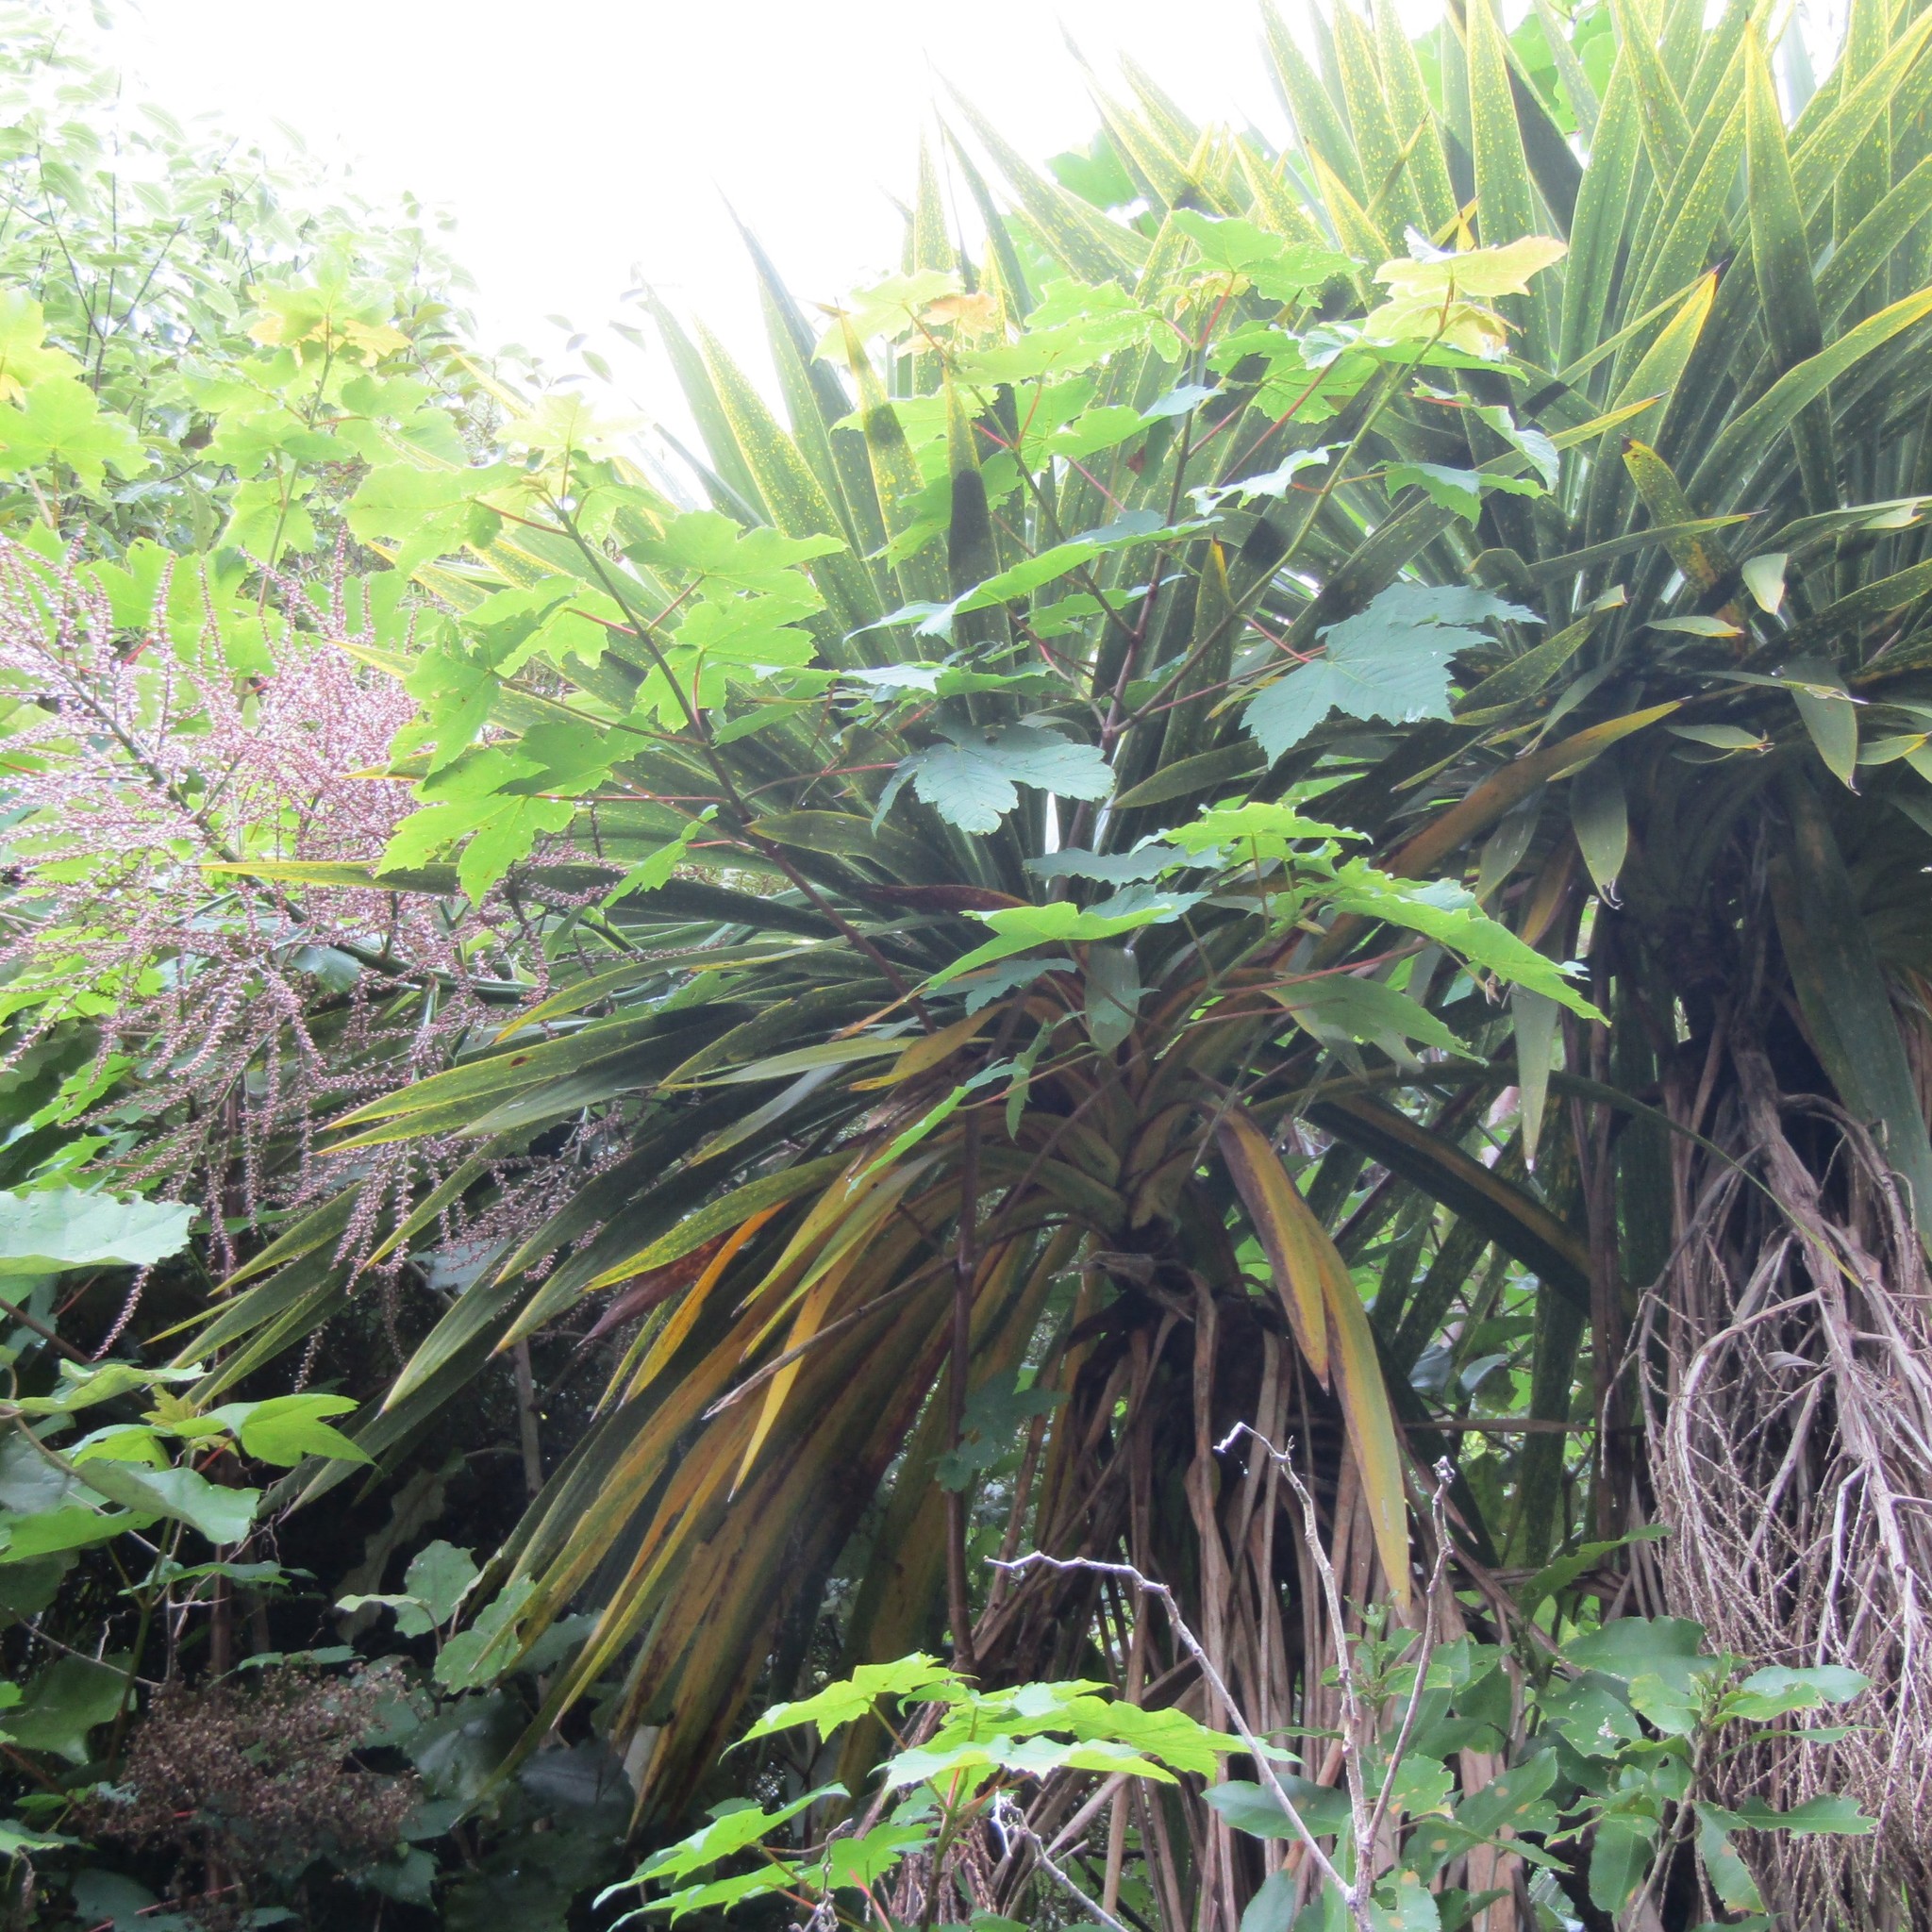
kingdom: Plantae
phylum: Tracheophyta
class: Liliopsida
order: Asparagales
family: Asparagaceae
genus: Cordyline
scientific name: Cordyline australis
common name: Cabbage-palm
